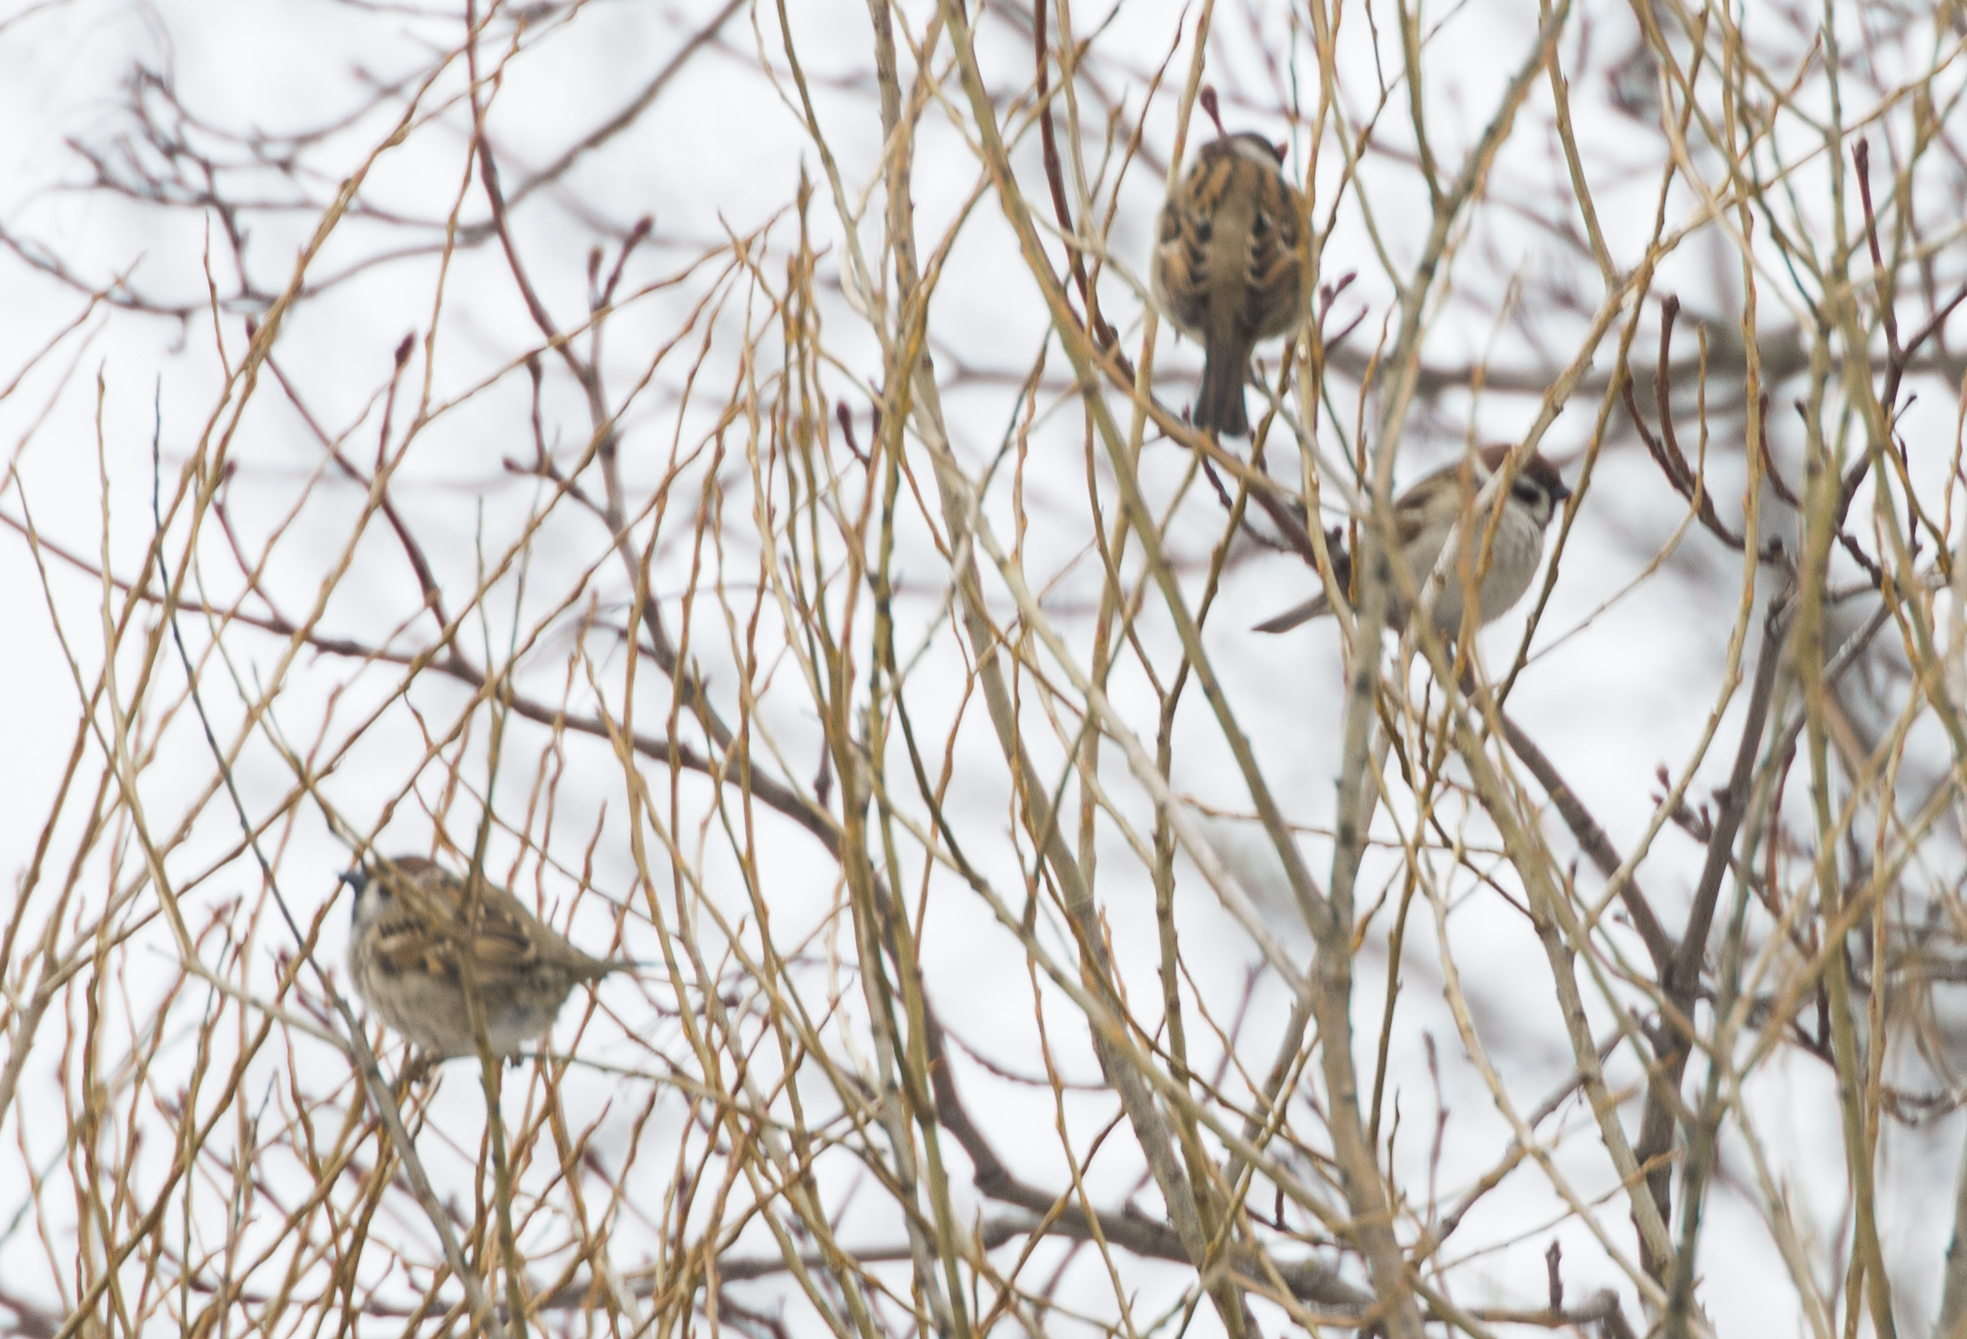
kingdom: Animalia
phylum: Chordata
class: Aves
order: Passeriformes
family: Passeridae
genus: Passer
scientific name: Passer montanus
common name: Eurasian tree sparrow
